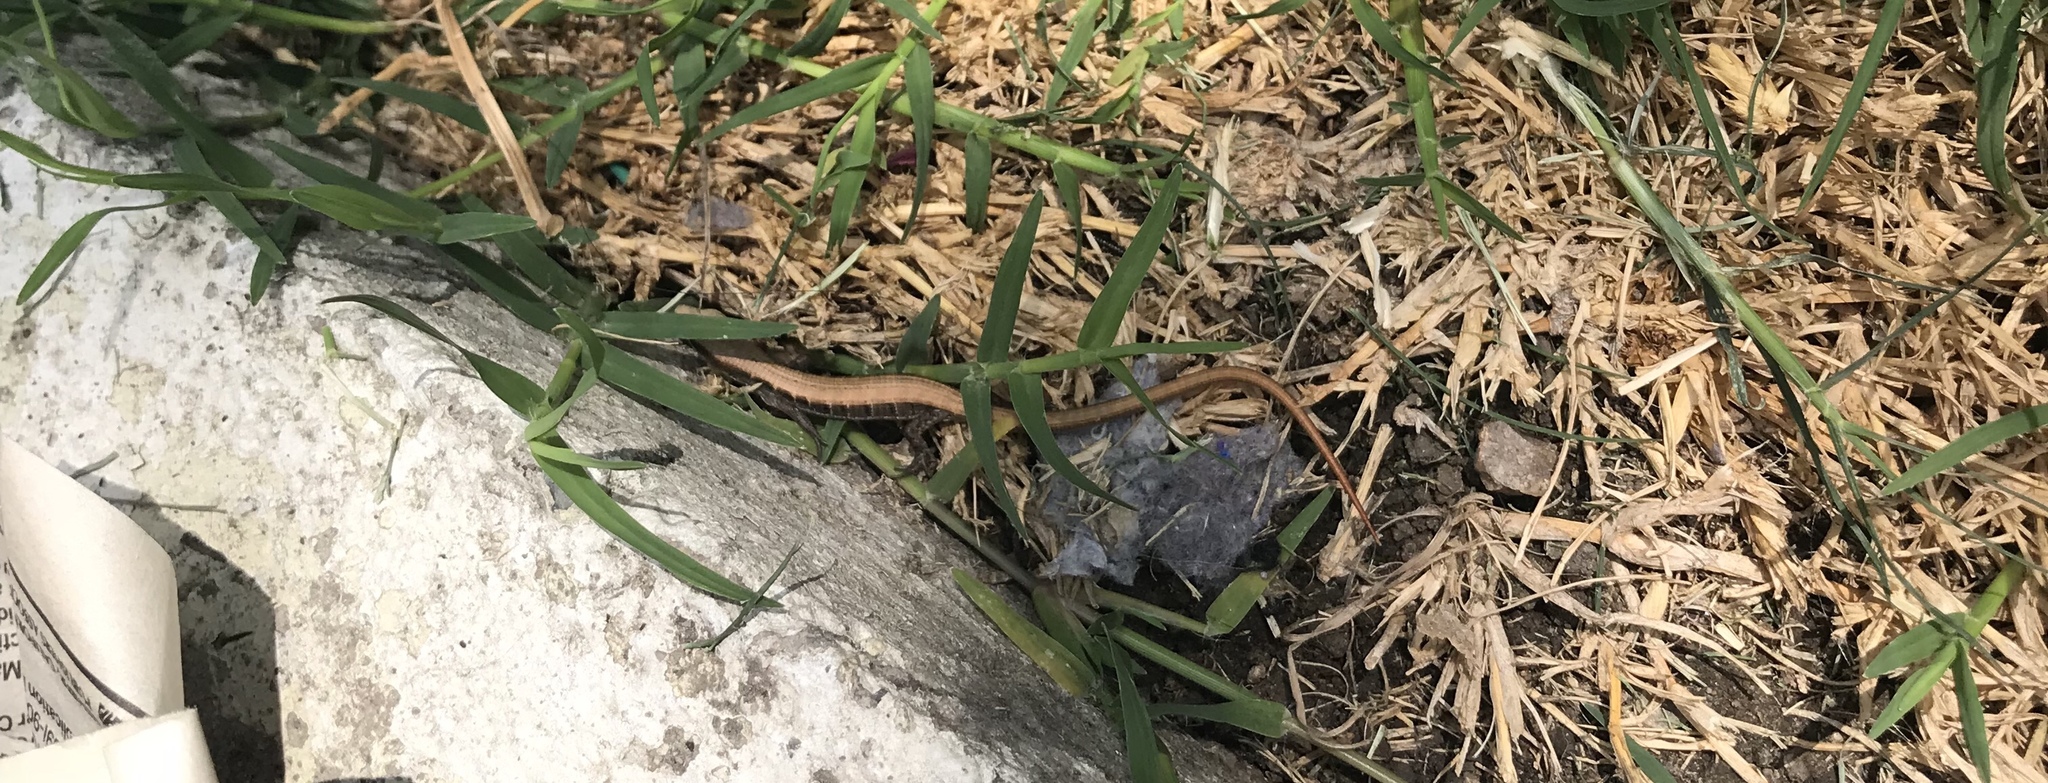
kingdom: Animalia
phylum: Chordata
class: Squamata
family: Anguidae
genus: Elgaria
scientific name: Elgaria multicarinata
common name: Southern alligator lizard
